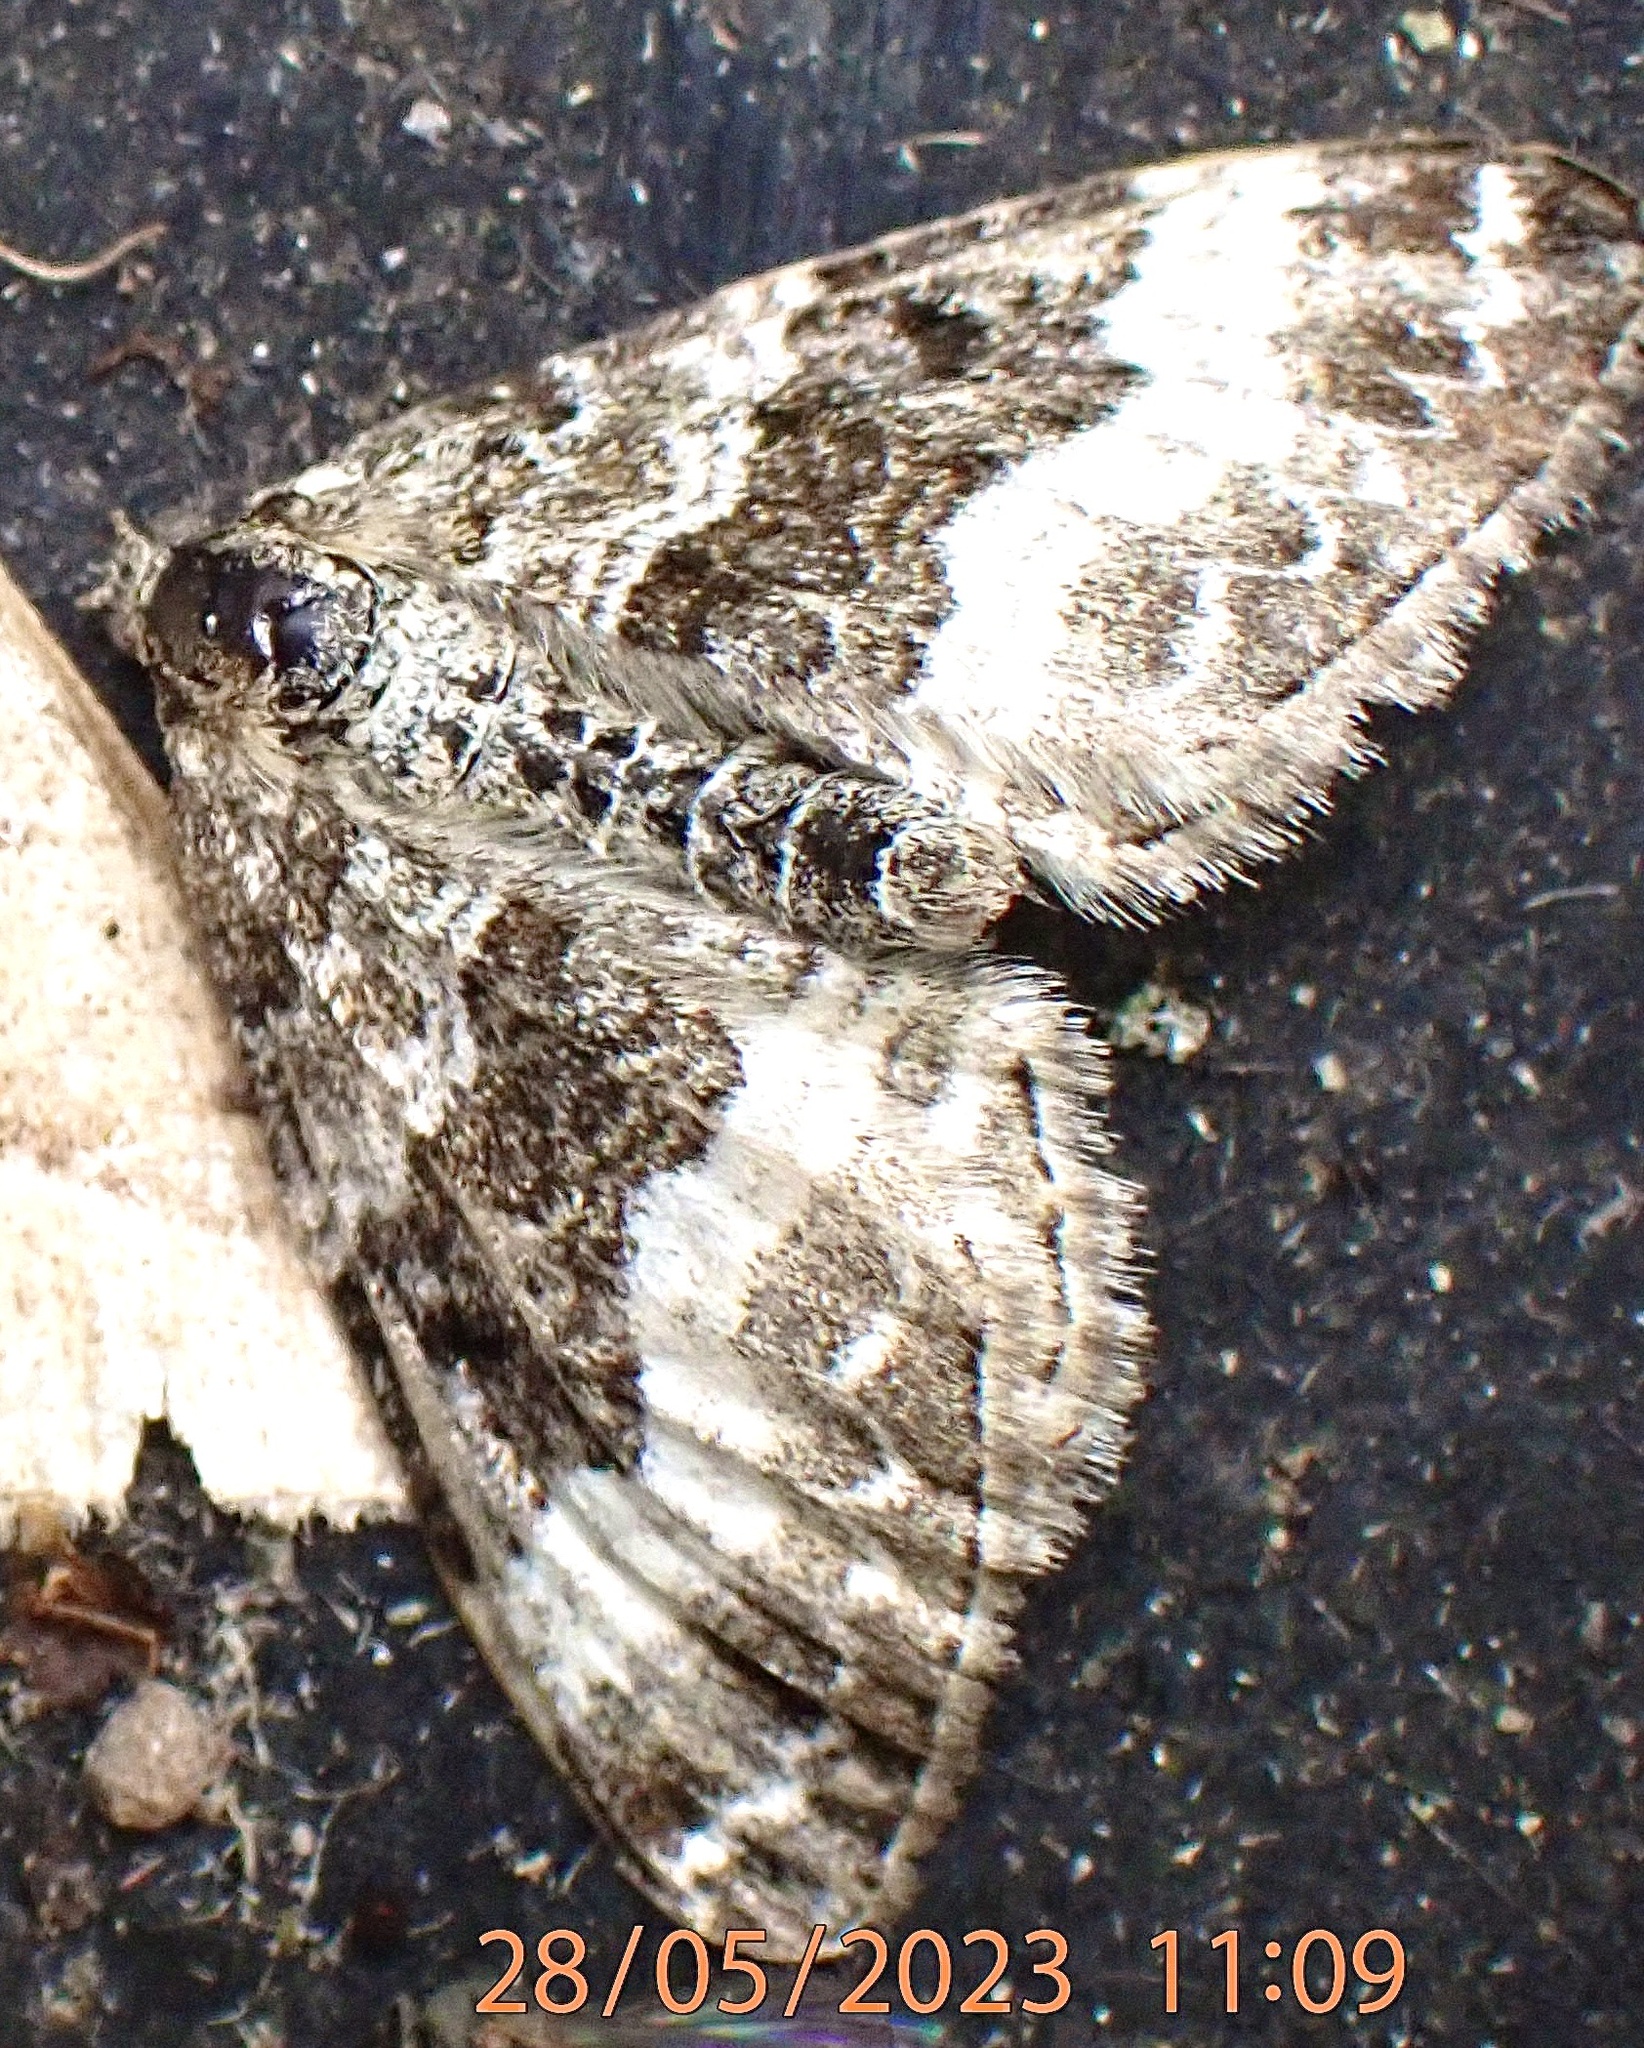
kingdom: Animalia
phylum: Arthropoda
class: Insecta
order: Lepidoptera
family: Geometridae
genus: Epirrhoe
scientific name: Epirrhoe alternata
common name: Common carpet
